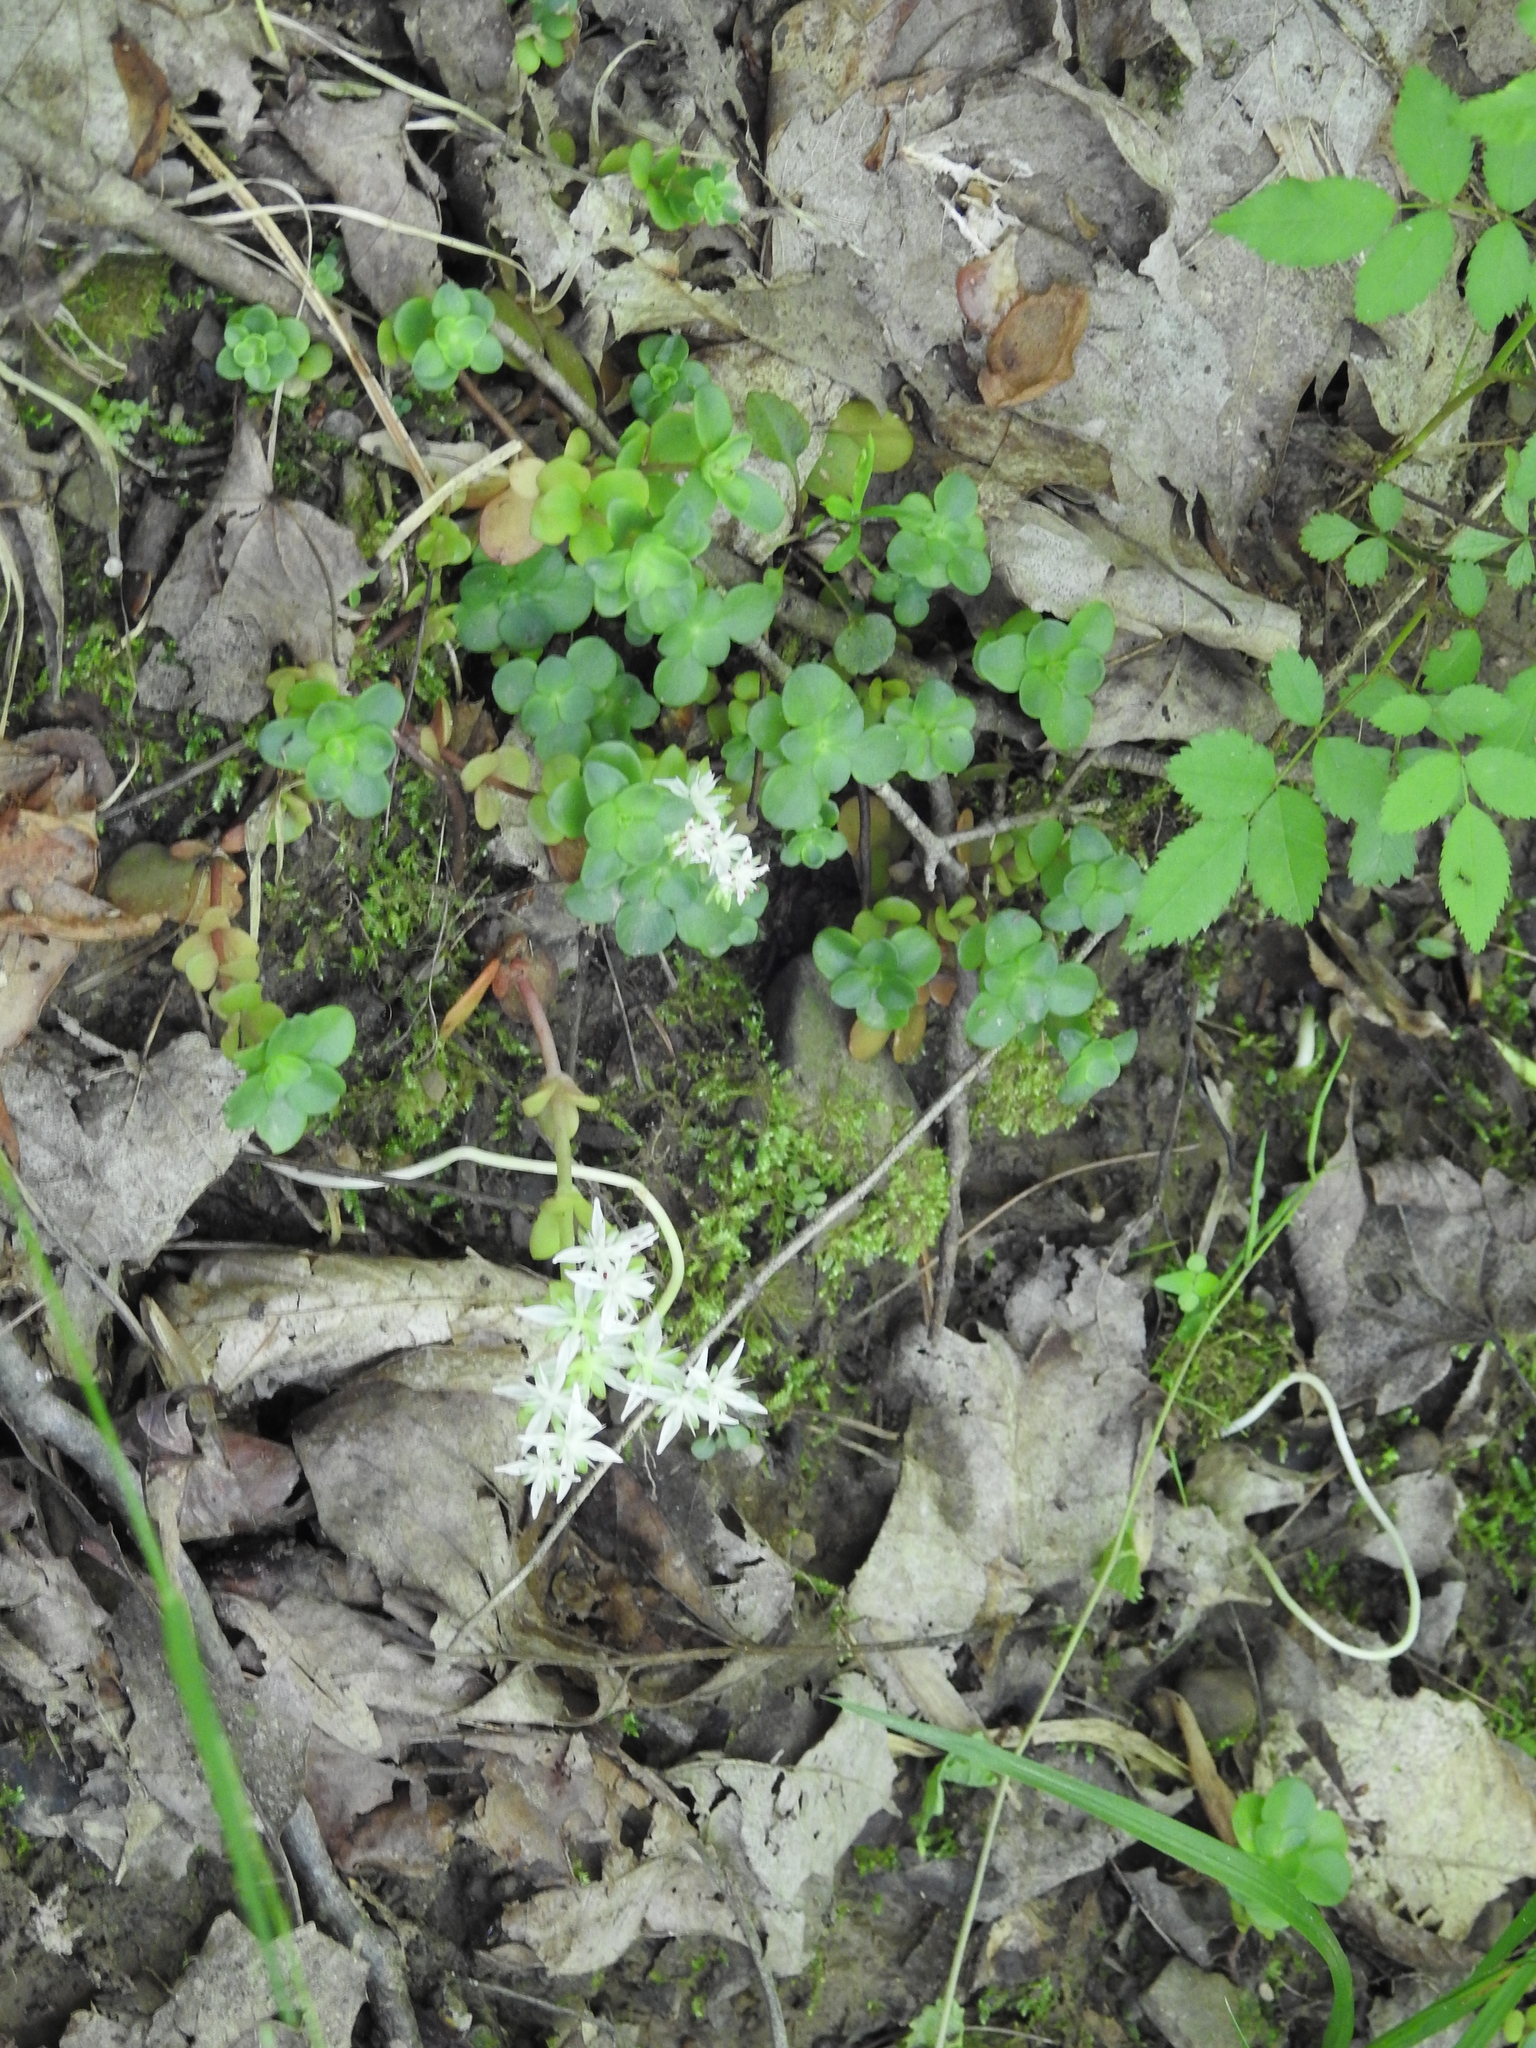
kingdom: Plantae
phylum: Tracheophyta
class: Magnoliopsida
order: Saxifragales
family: Crassulaceae
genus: Sedum
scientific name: Sedum ternatum
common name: Wild stonecrop
